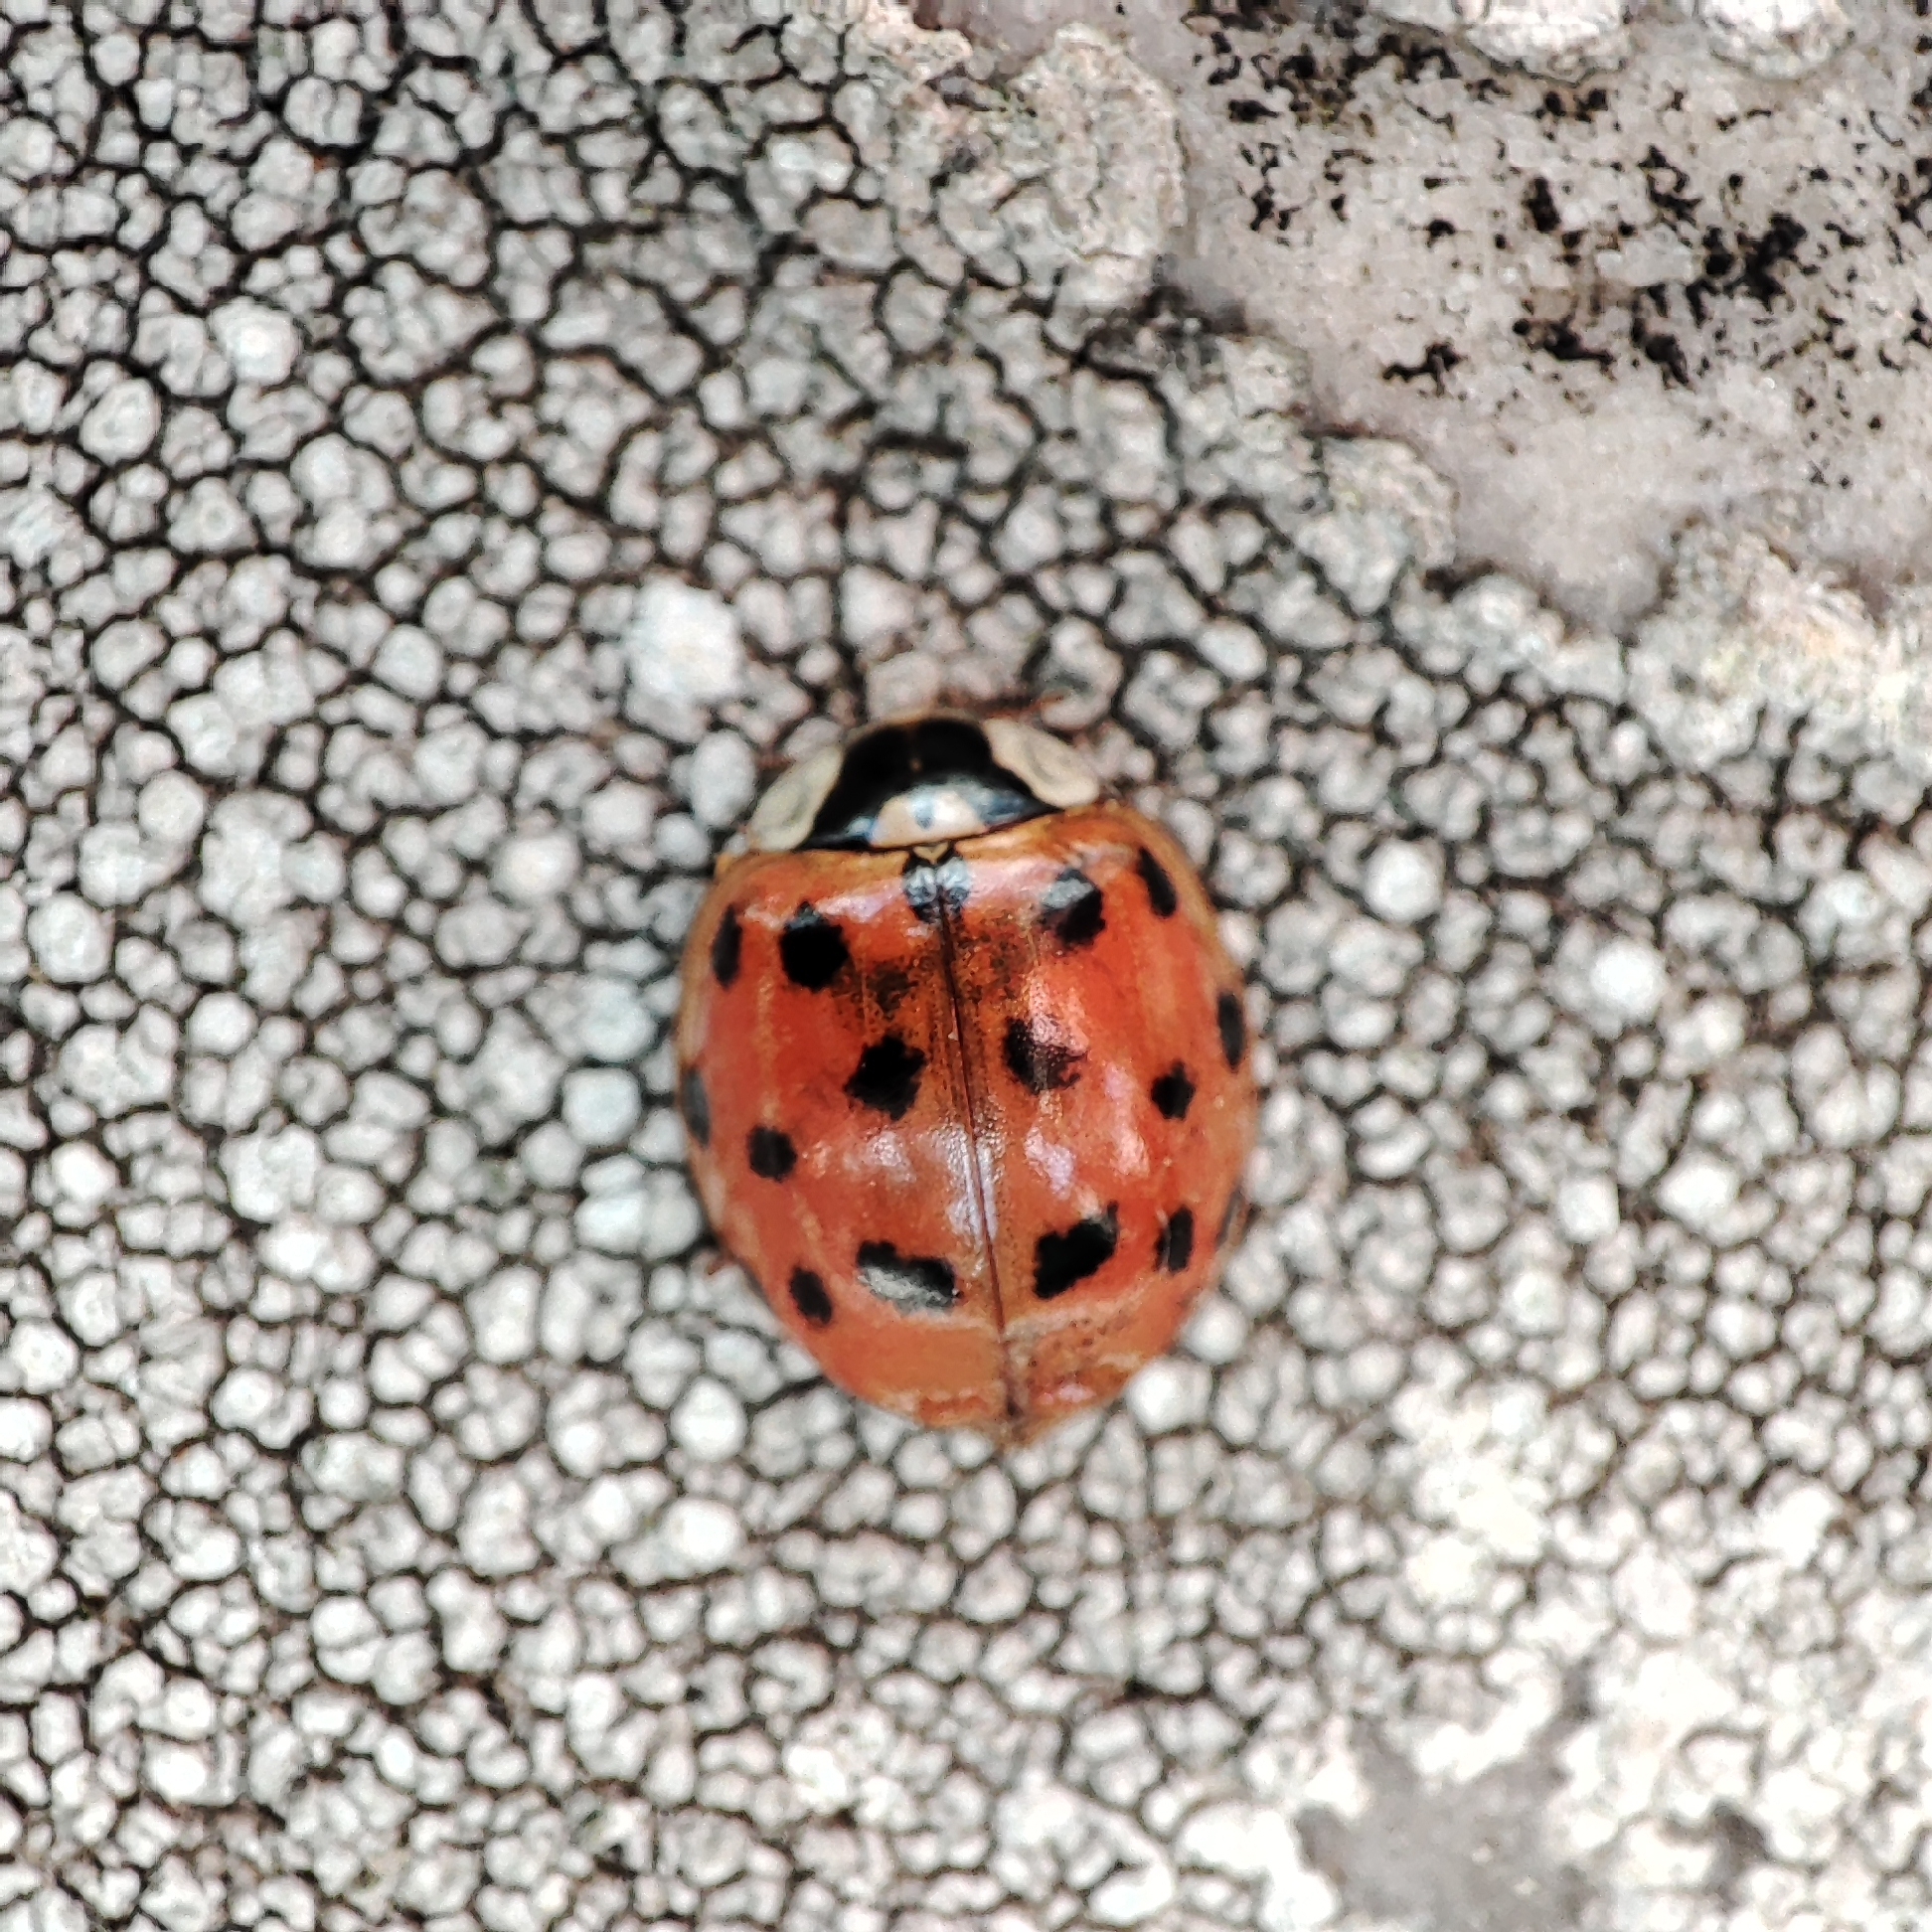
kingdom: Animalia
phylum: Arthropoda
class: Insecta
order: Coleoptera
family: Coccinellidae
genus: Harmonia
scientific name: Harmonia axyridis
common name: Harlequin ladybird
